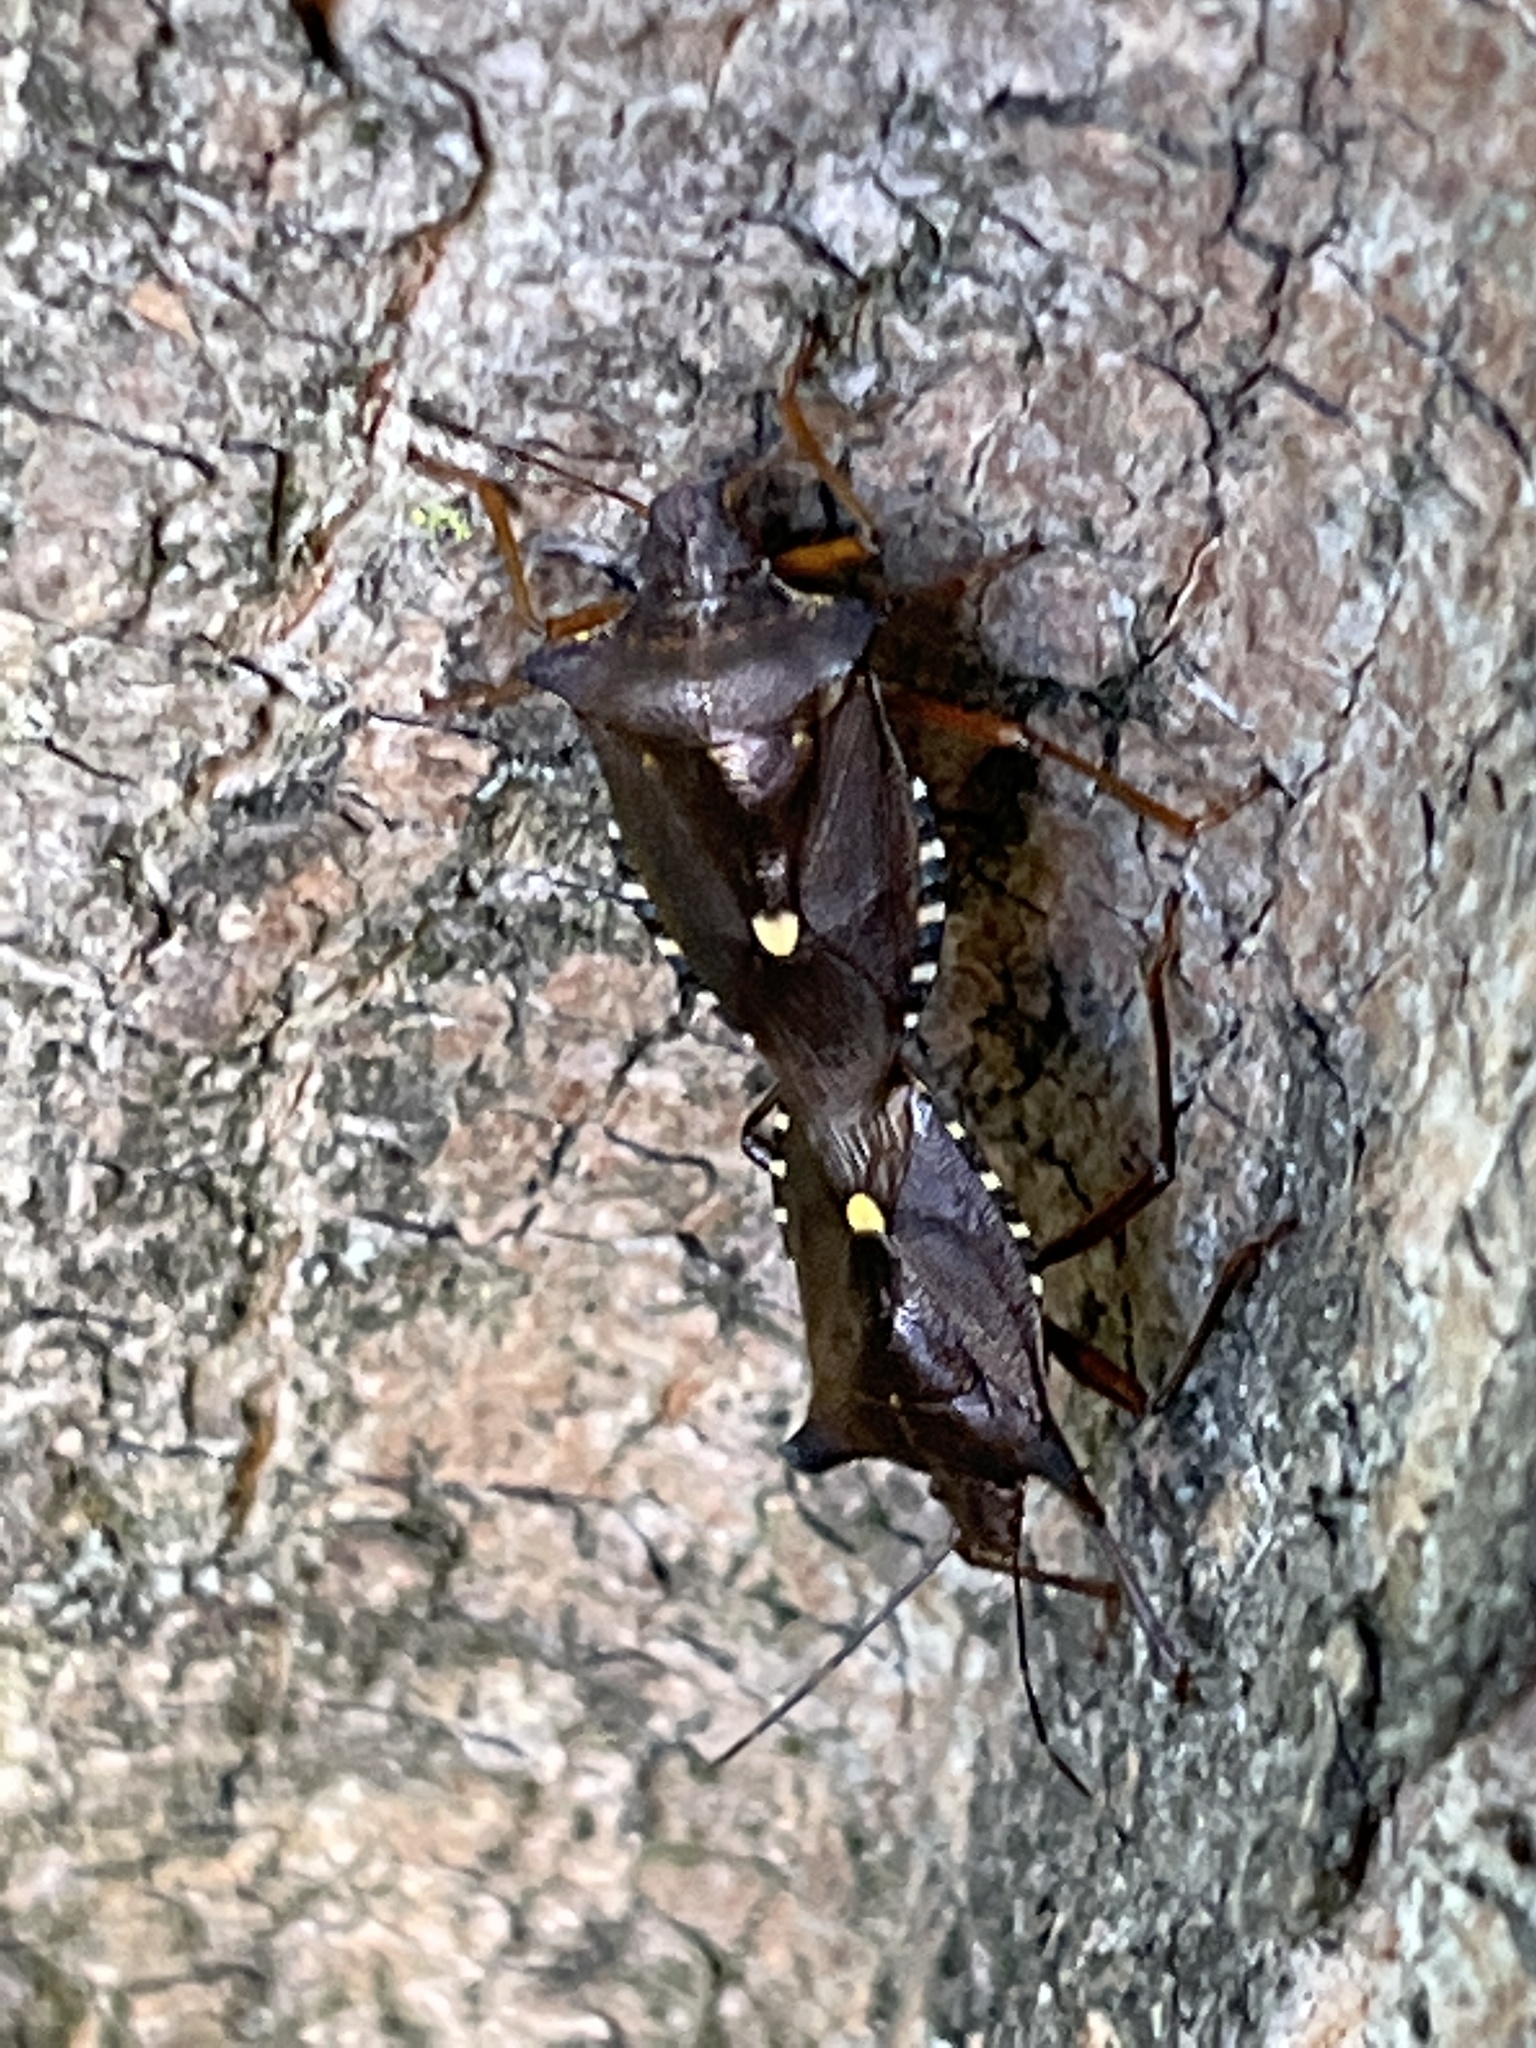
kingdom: Animalia
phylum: Arthropoda
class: Insecta
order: Hemiptera
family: Pentatomidae
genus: Pentatoma
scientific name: Pentatoma rufipes
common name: Forest bug
